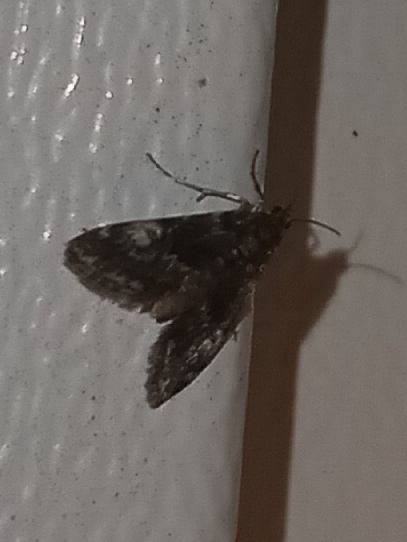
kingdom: Animalia
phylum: Arthropoda
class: Insecta
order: Lepidoptera
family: Crambidae
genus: Elophila
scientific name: Elophila tinealis
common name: Black duckweed moth
